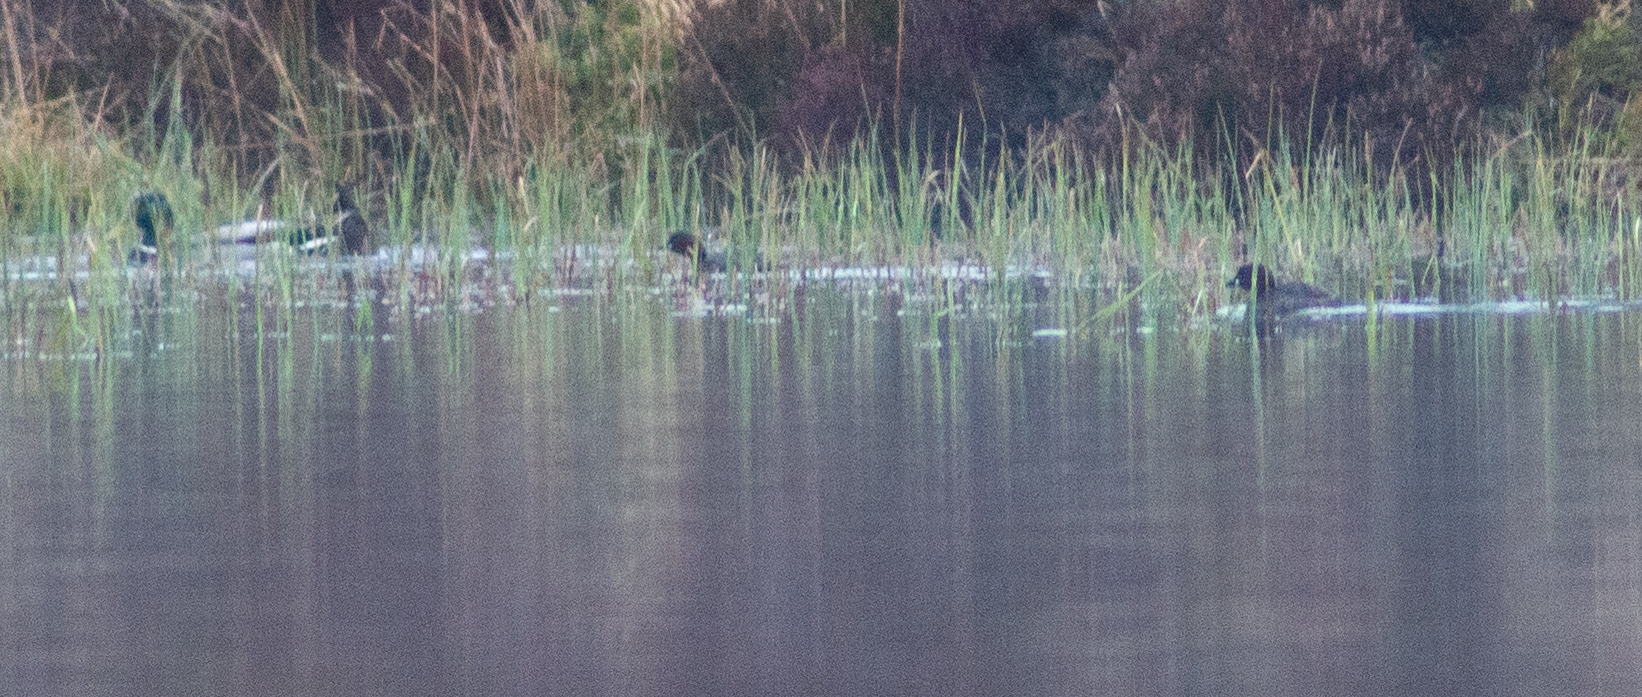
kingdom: Animalia
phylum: Chordata
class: Aves
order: Anseriformes
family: Anatidae
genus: Anas
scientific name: Anas platyrhynchos
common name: Mallard
